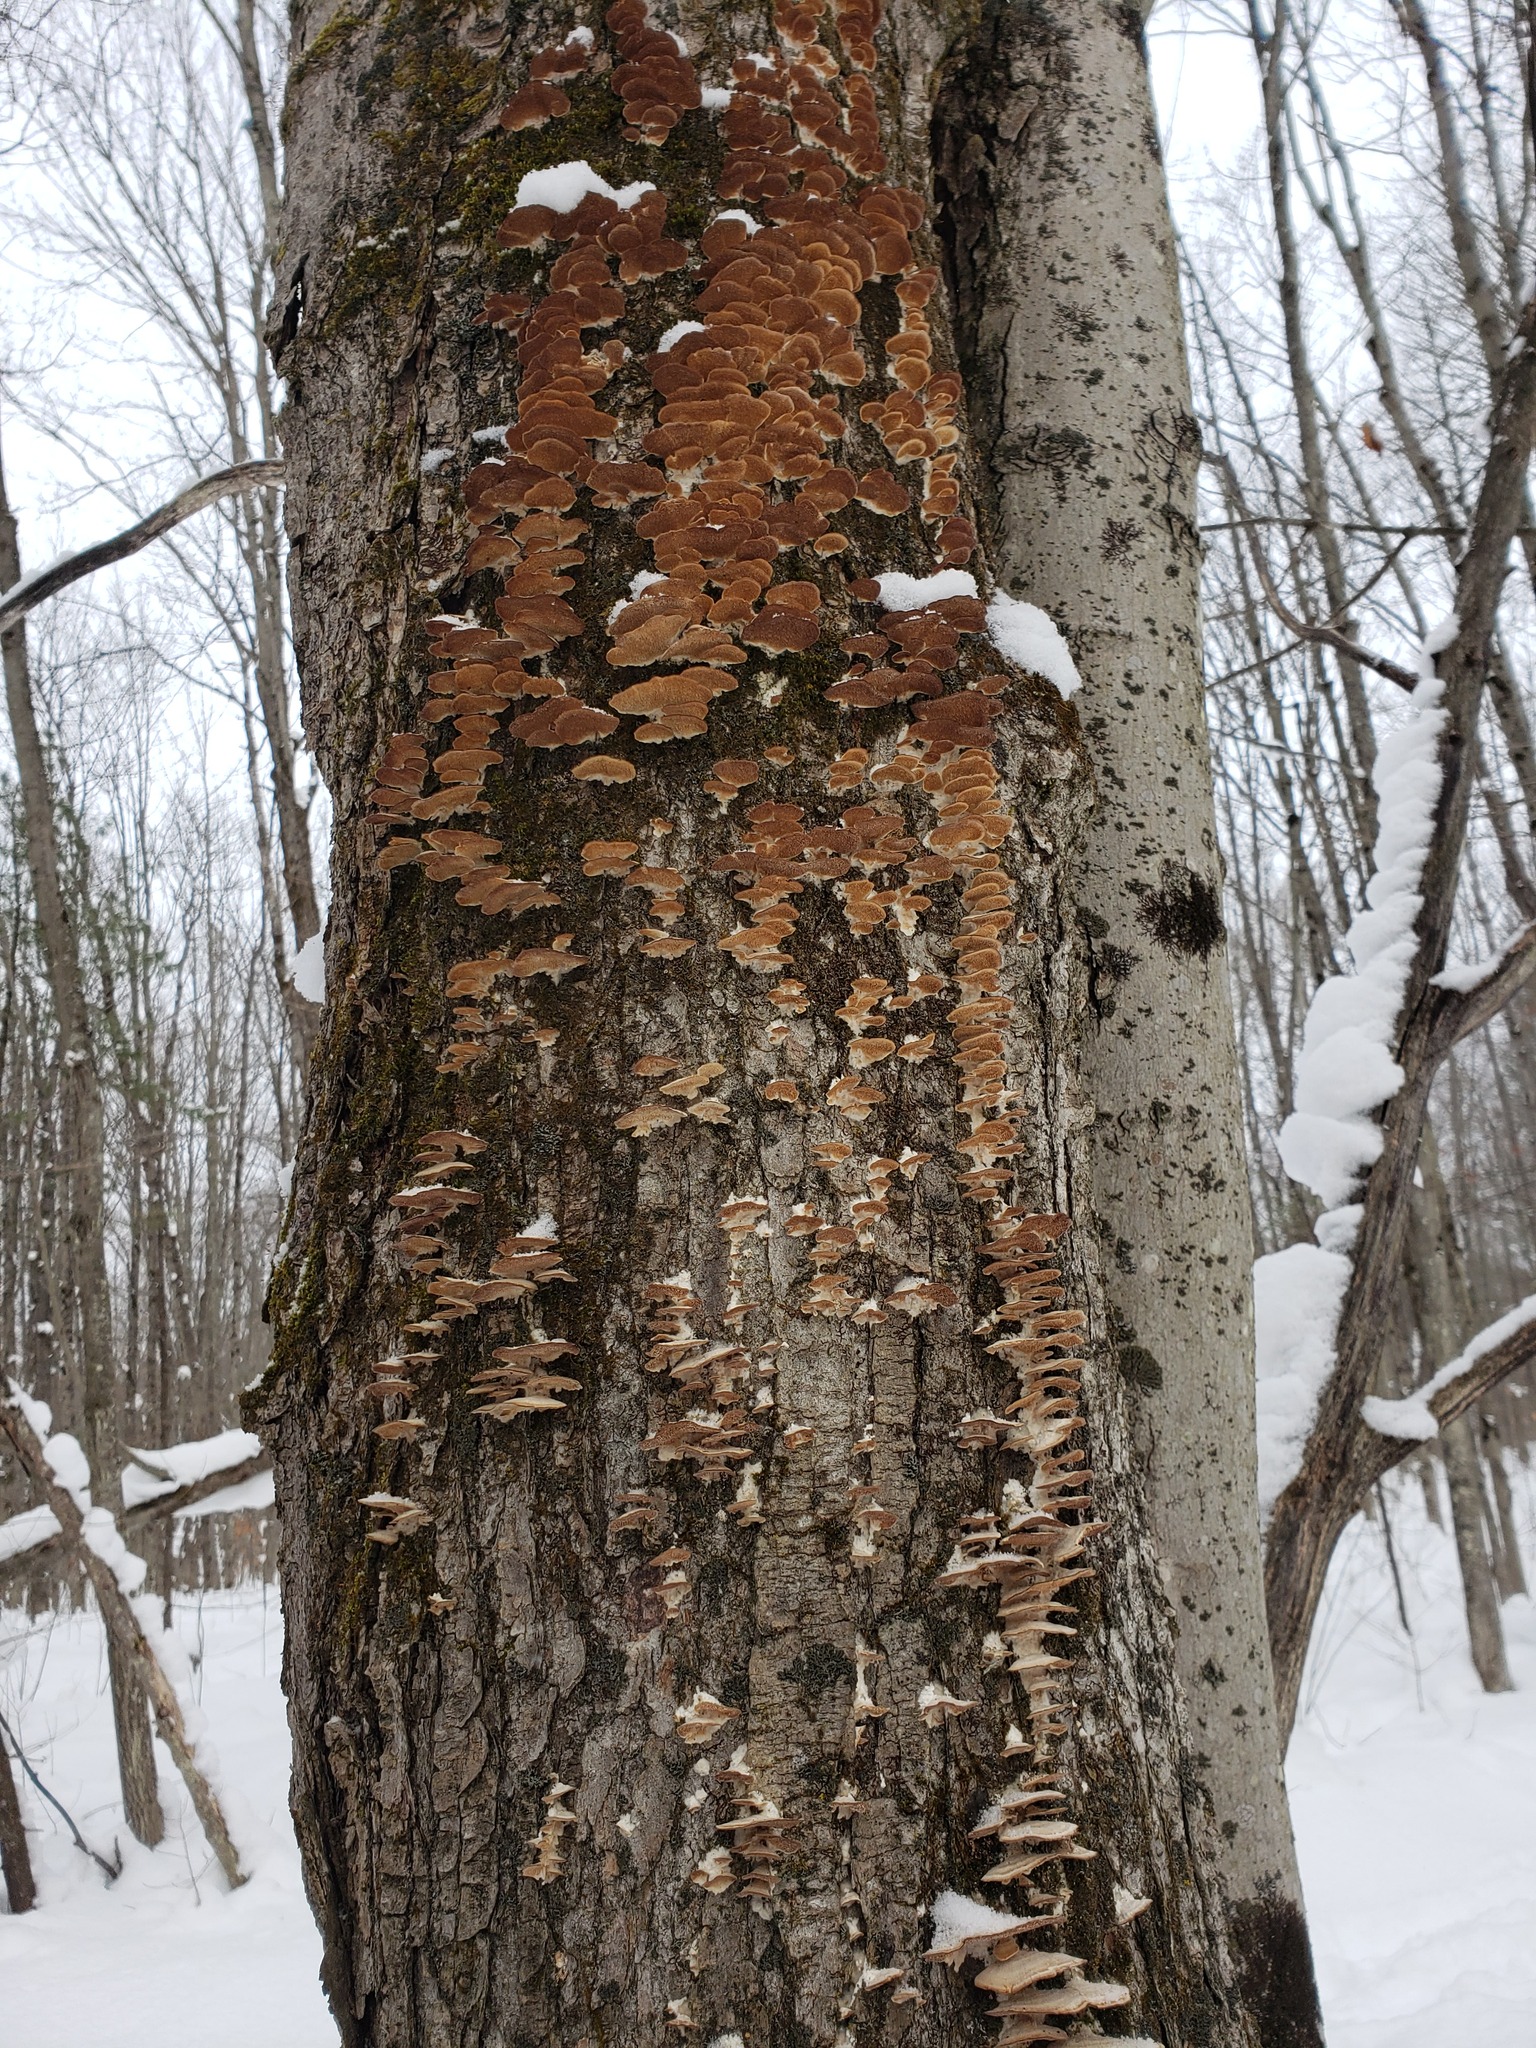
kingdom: Fungi
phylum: Basidiomycota
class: Agaricomycetes
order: Hymenochaetales
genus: Trichaptum
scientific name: Trichaptum biforme
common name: Violet-toothed polypore
